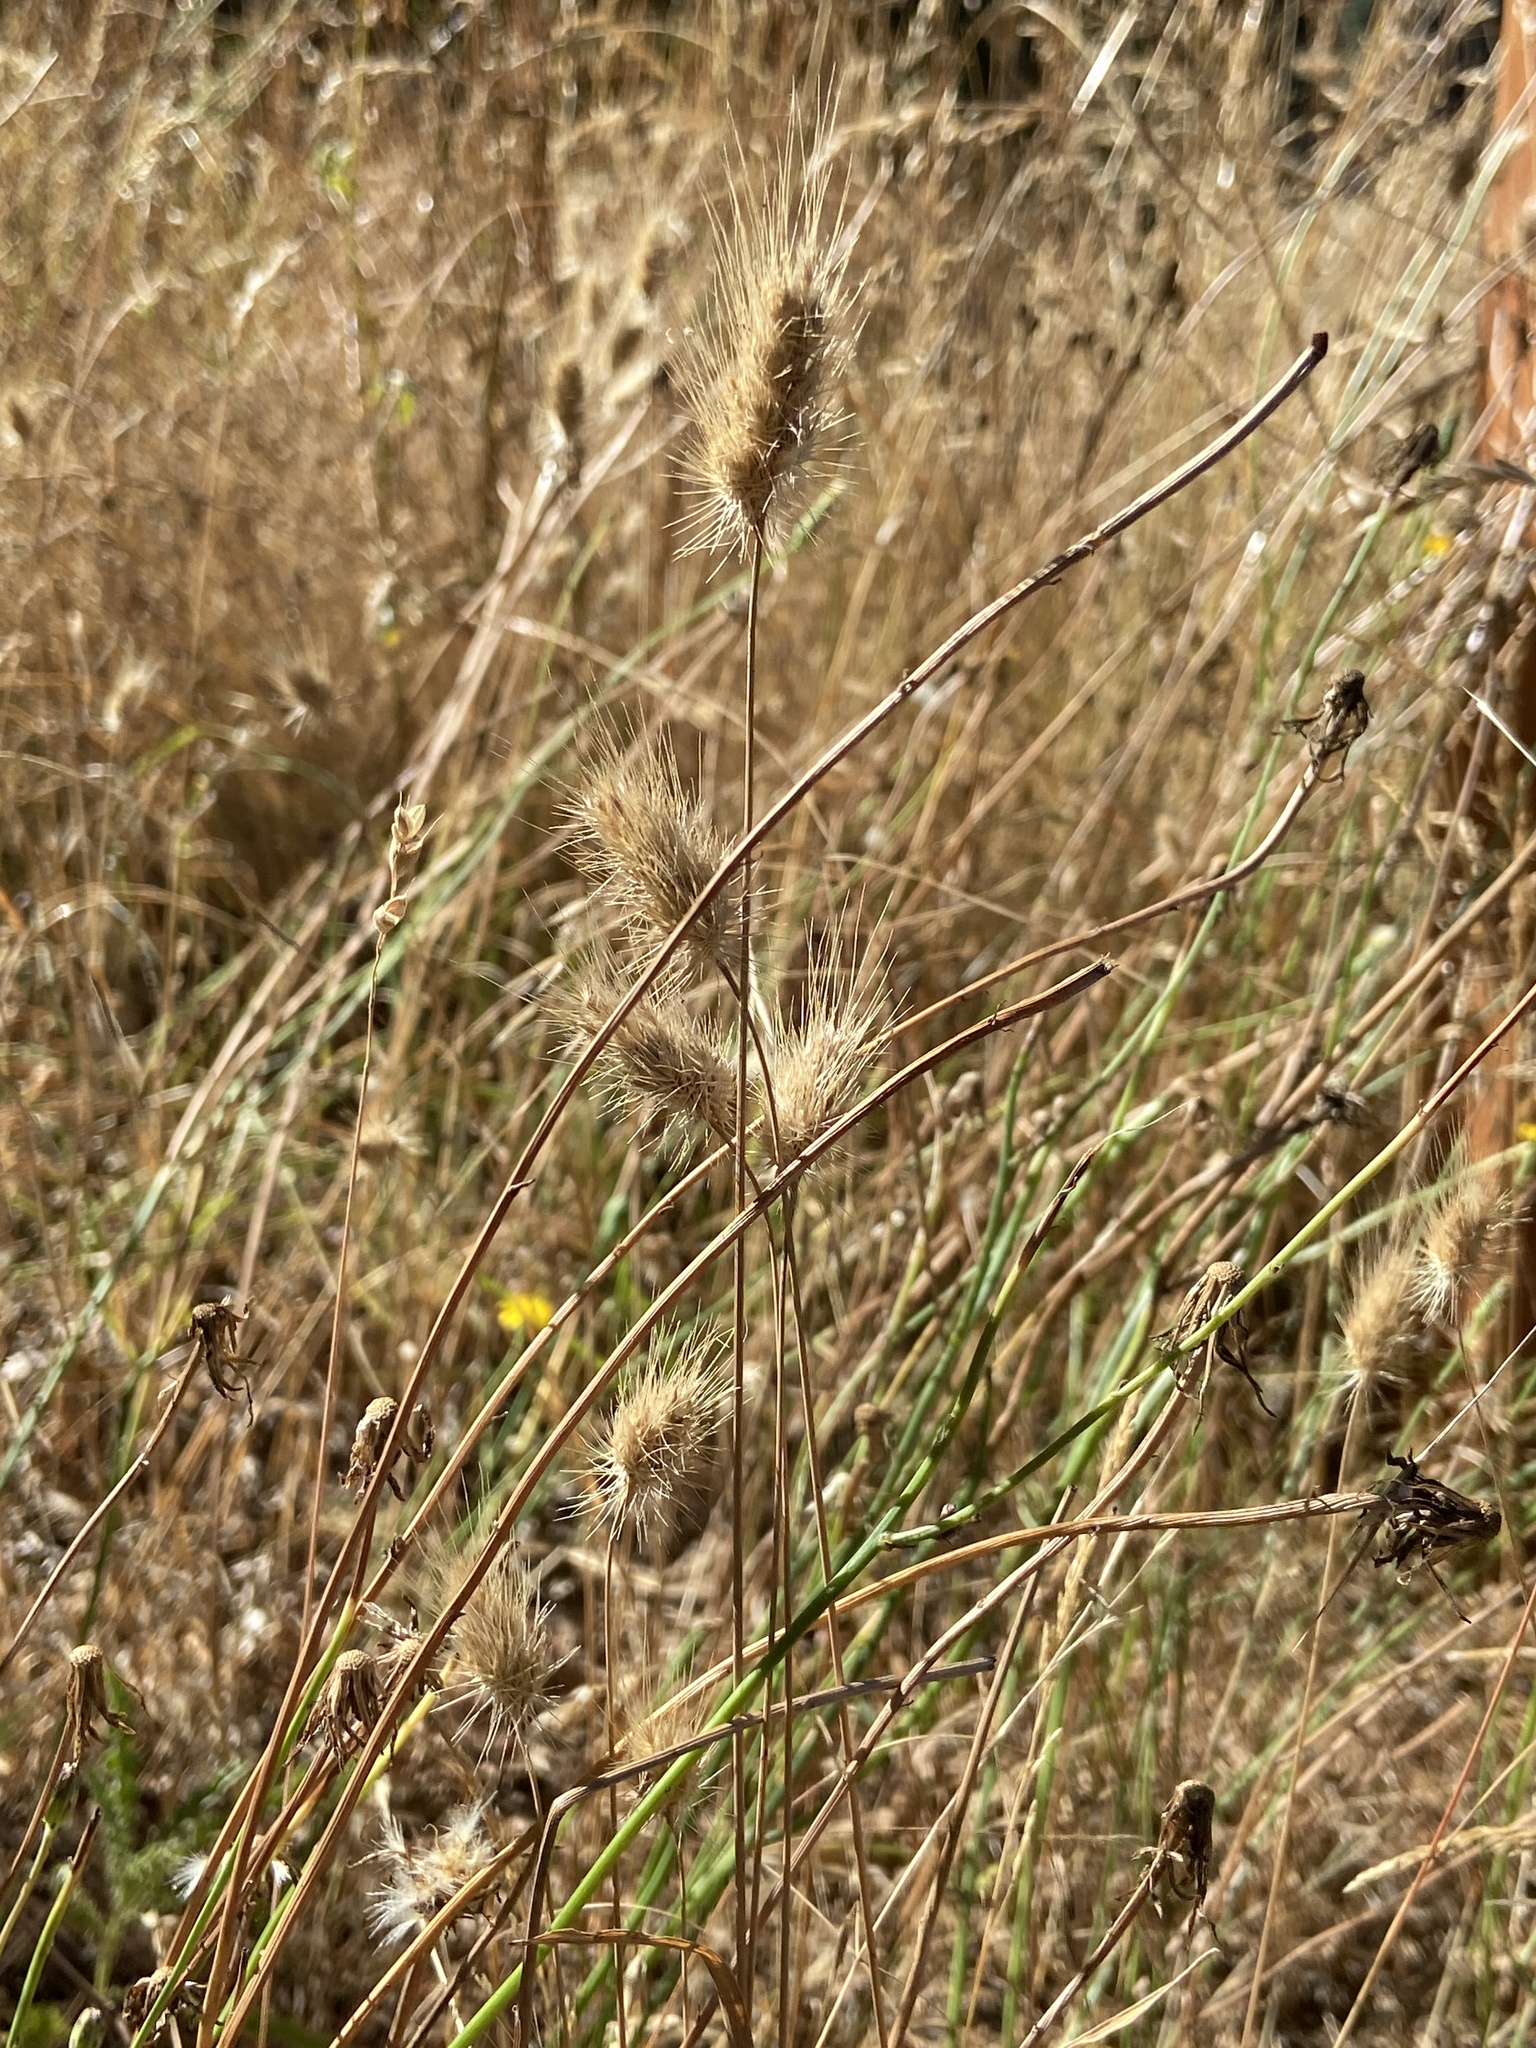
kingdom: Plantae
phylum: Tracheophyta
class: Liliopsida
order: Poales
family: Poaceae
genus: Cynosurus
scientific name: Cynosurus echinatus
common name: Rough dog's-tail
